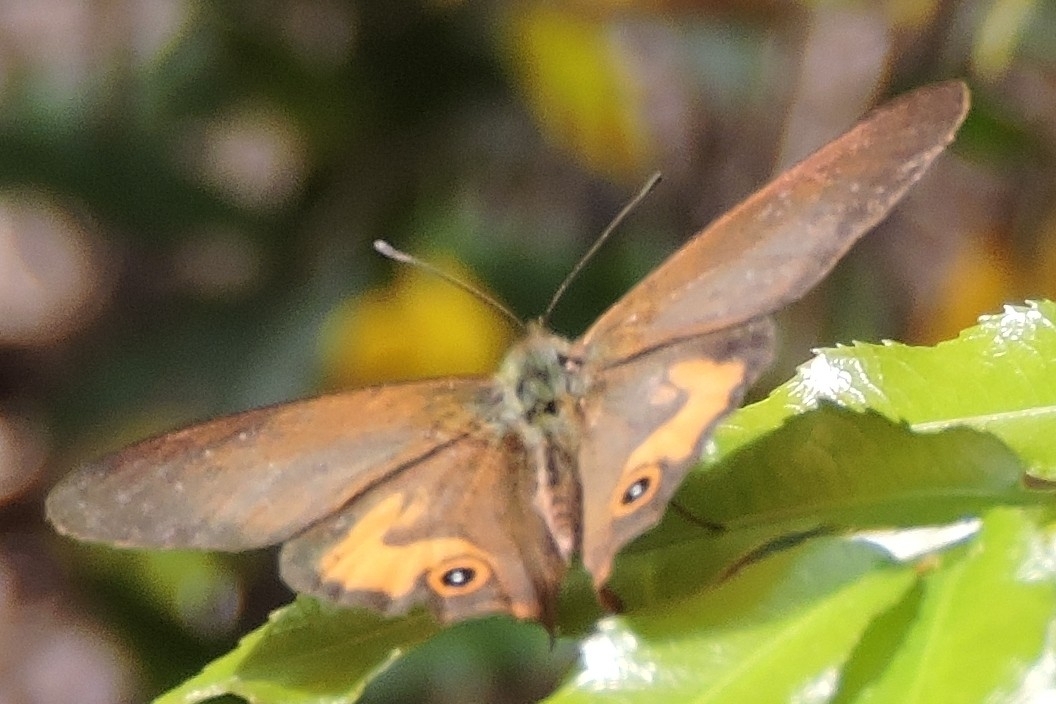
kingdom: Animalia
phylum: Arthropoda
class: Insecta
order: Lepidoptera
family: Nymphalidae
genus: Hypocysta
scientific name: Hypocysta metirius
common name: Brown ringlet
